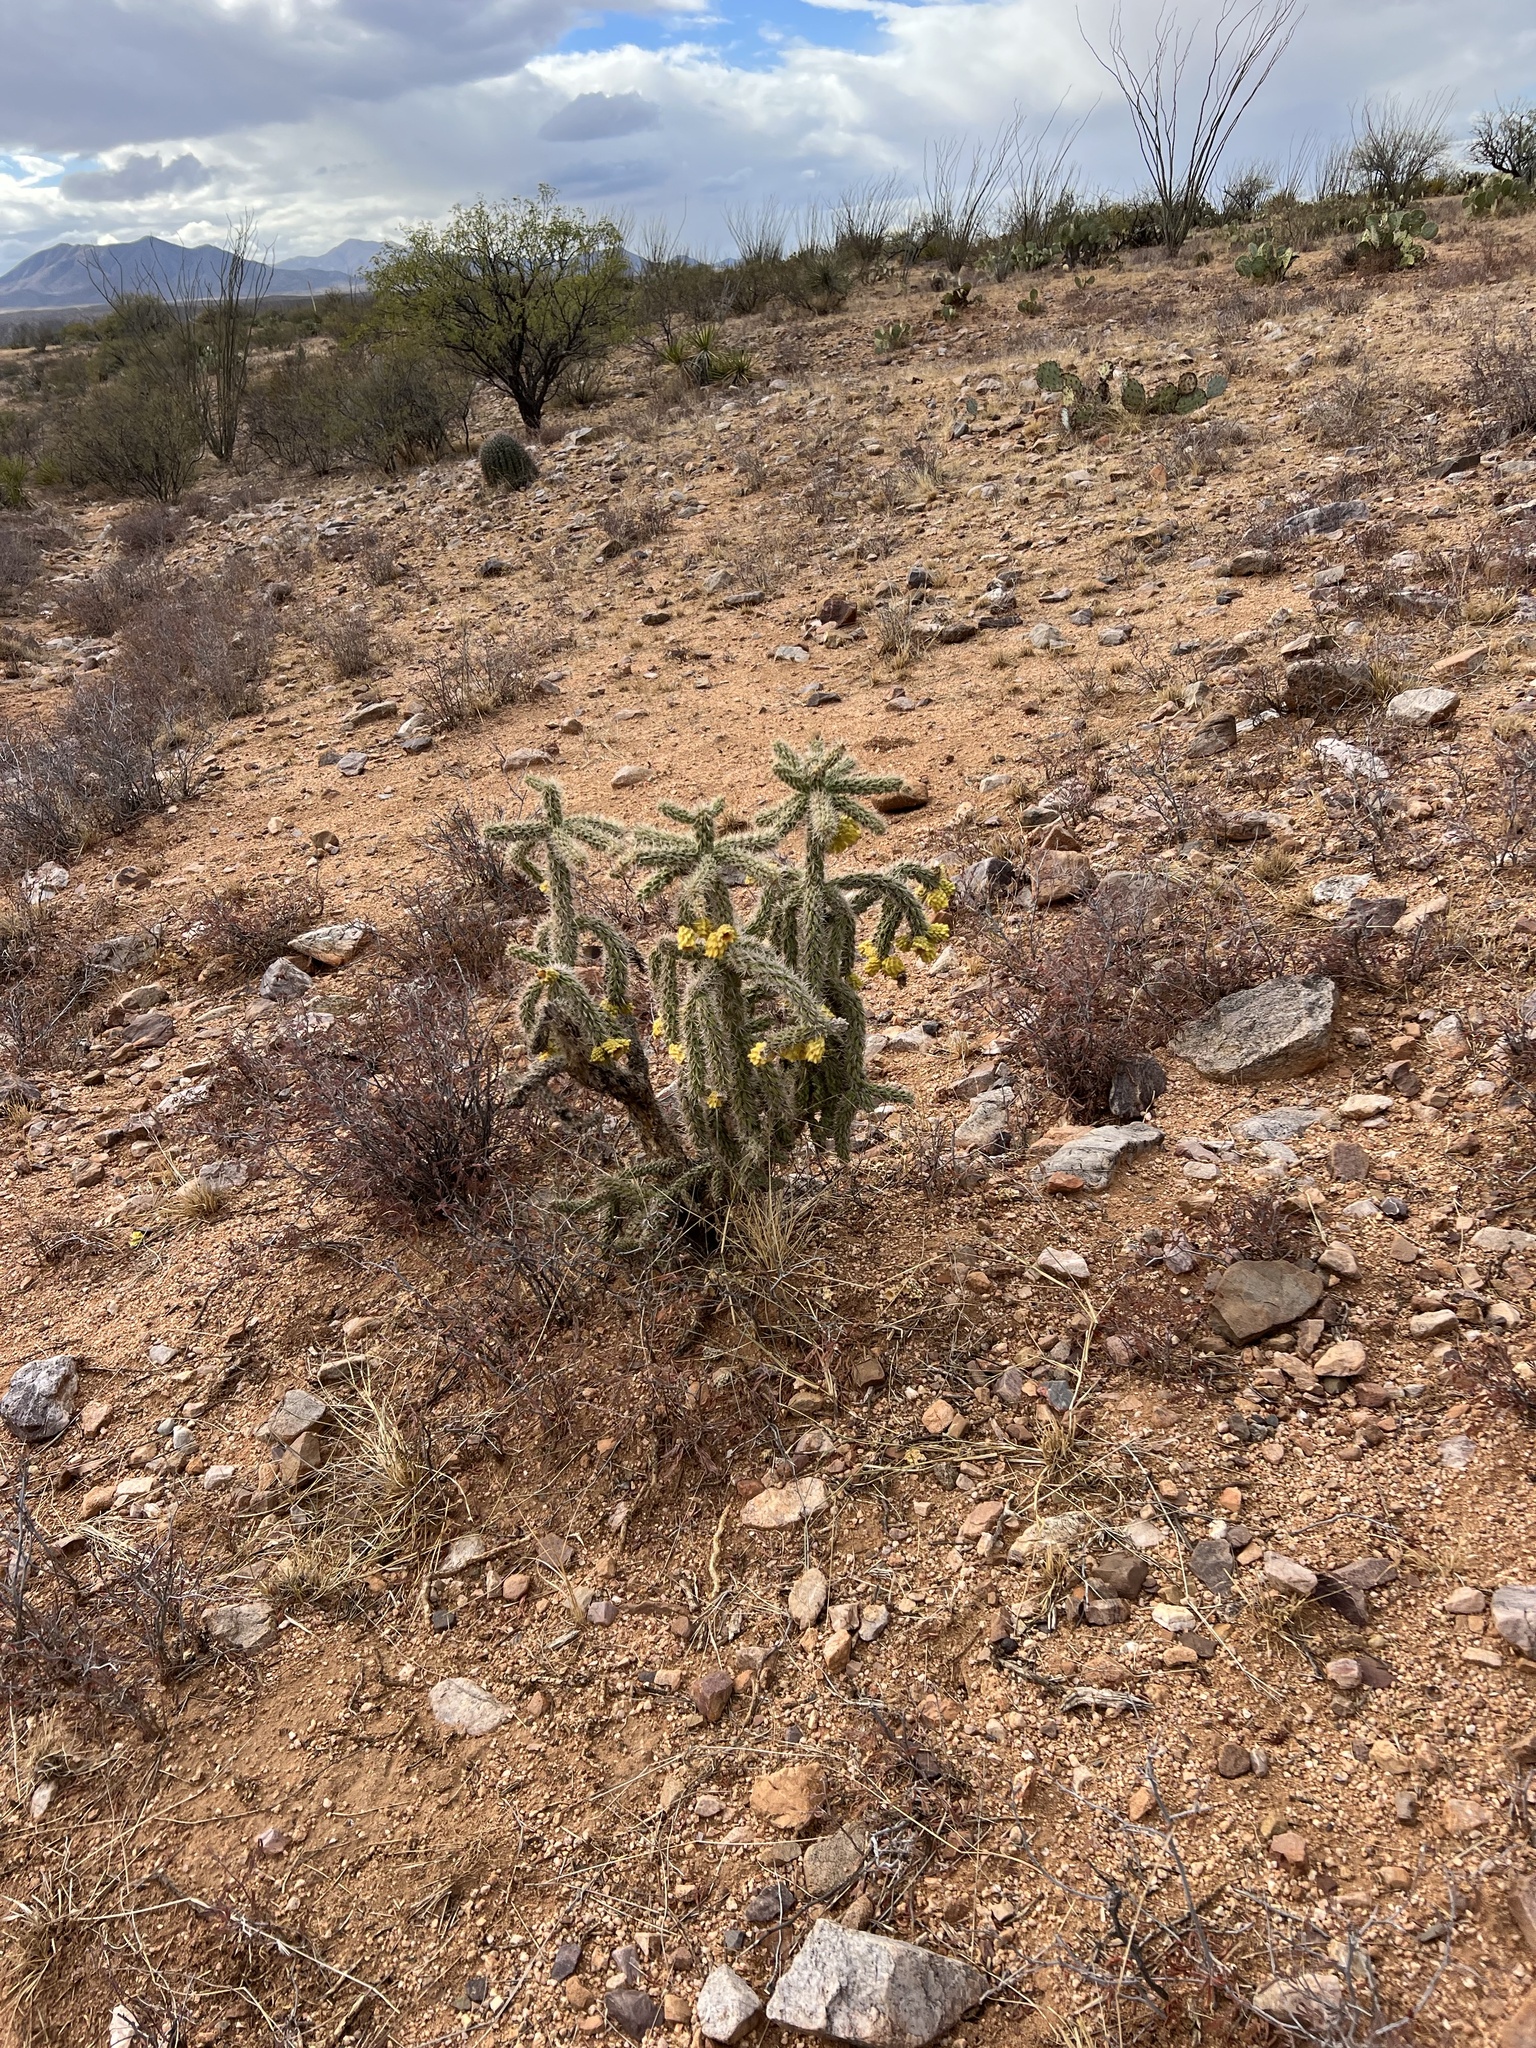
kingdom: Plantae
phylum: Tracheophyta
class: Magnoliopsida
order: Caryophyllales
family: Cactaceae
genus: Cylindropuntia
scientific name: Cylindropuntia imbricata
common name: Candelabrum cactus
